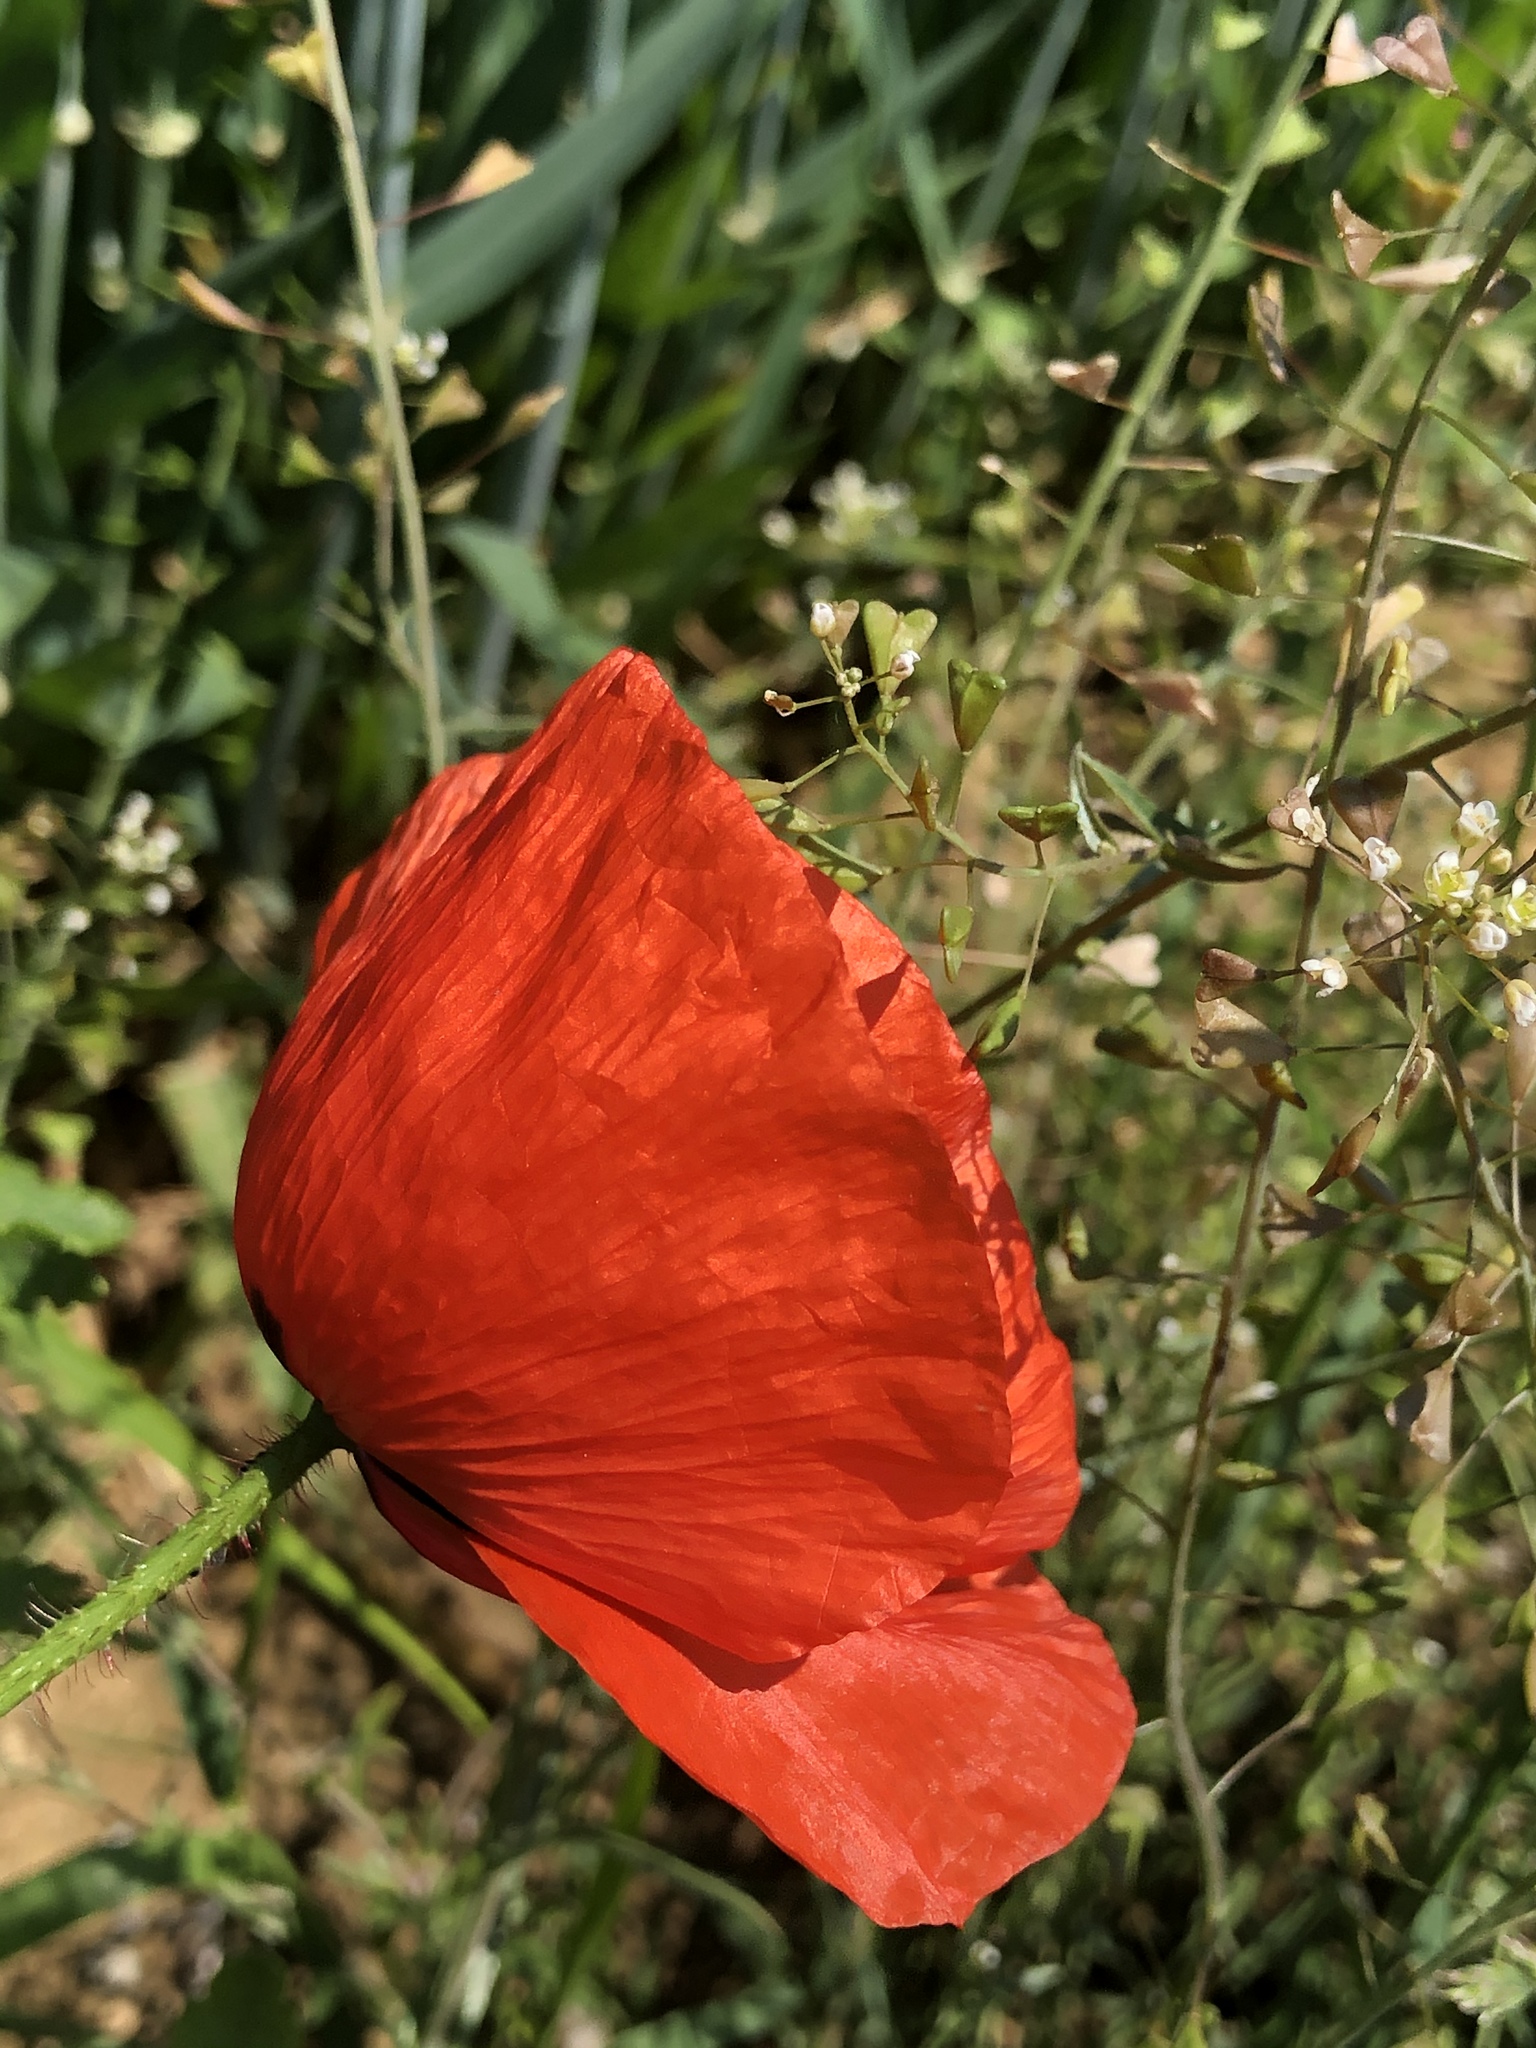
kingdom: Plantae
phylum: Tracheophyta
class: Magnoliopsida
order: Ranunculales
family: Papaveraceae
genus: Papaver
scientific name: Papaver rhoeas
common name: Corn poppy
